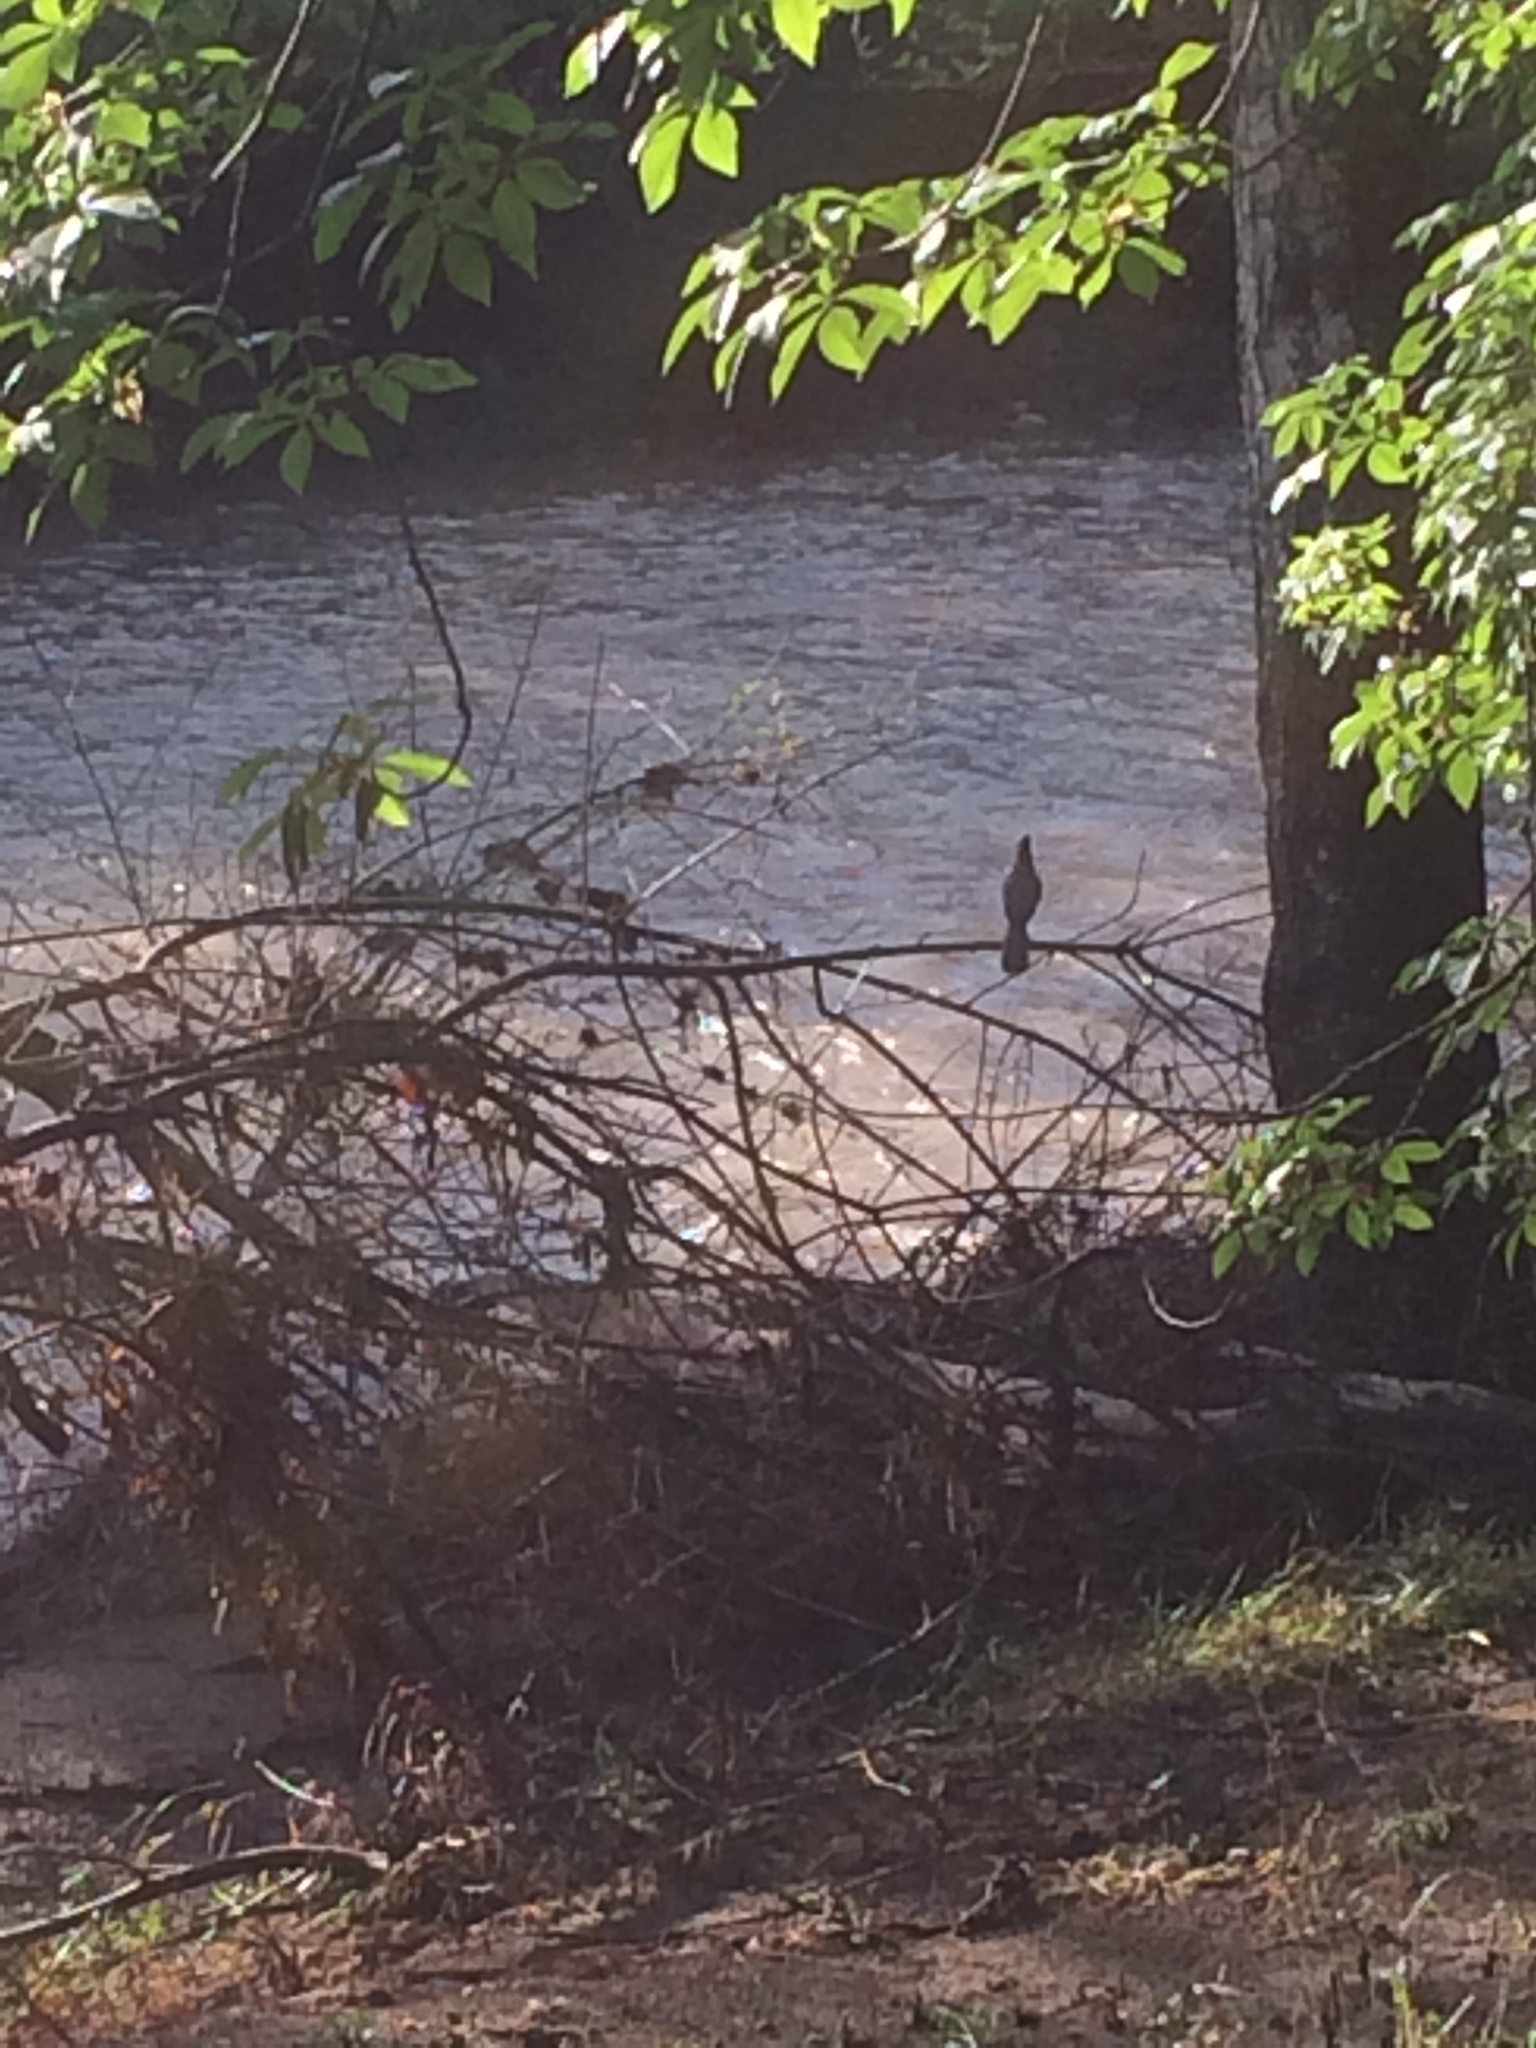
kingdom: Animalia
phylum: Chordata
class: Aves
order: Passeriformes
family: Corvidae
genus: Cyanocitta
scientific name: Cyanocitta stelleri
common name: Steller's jay
